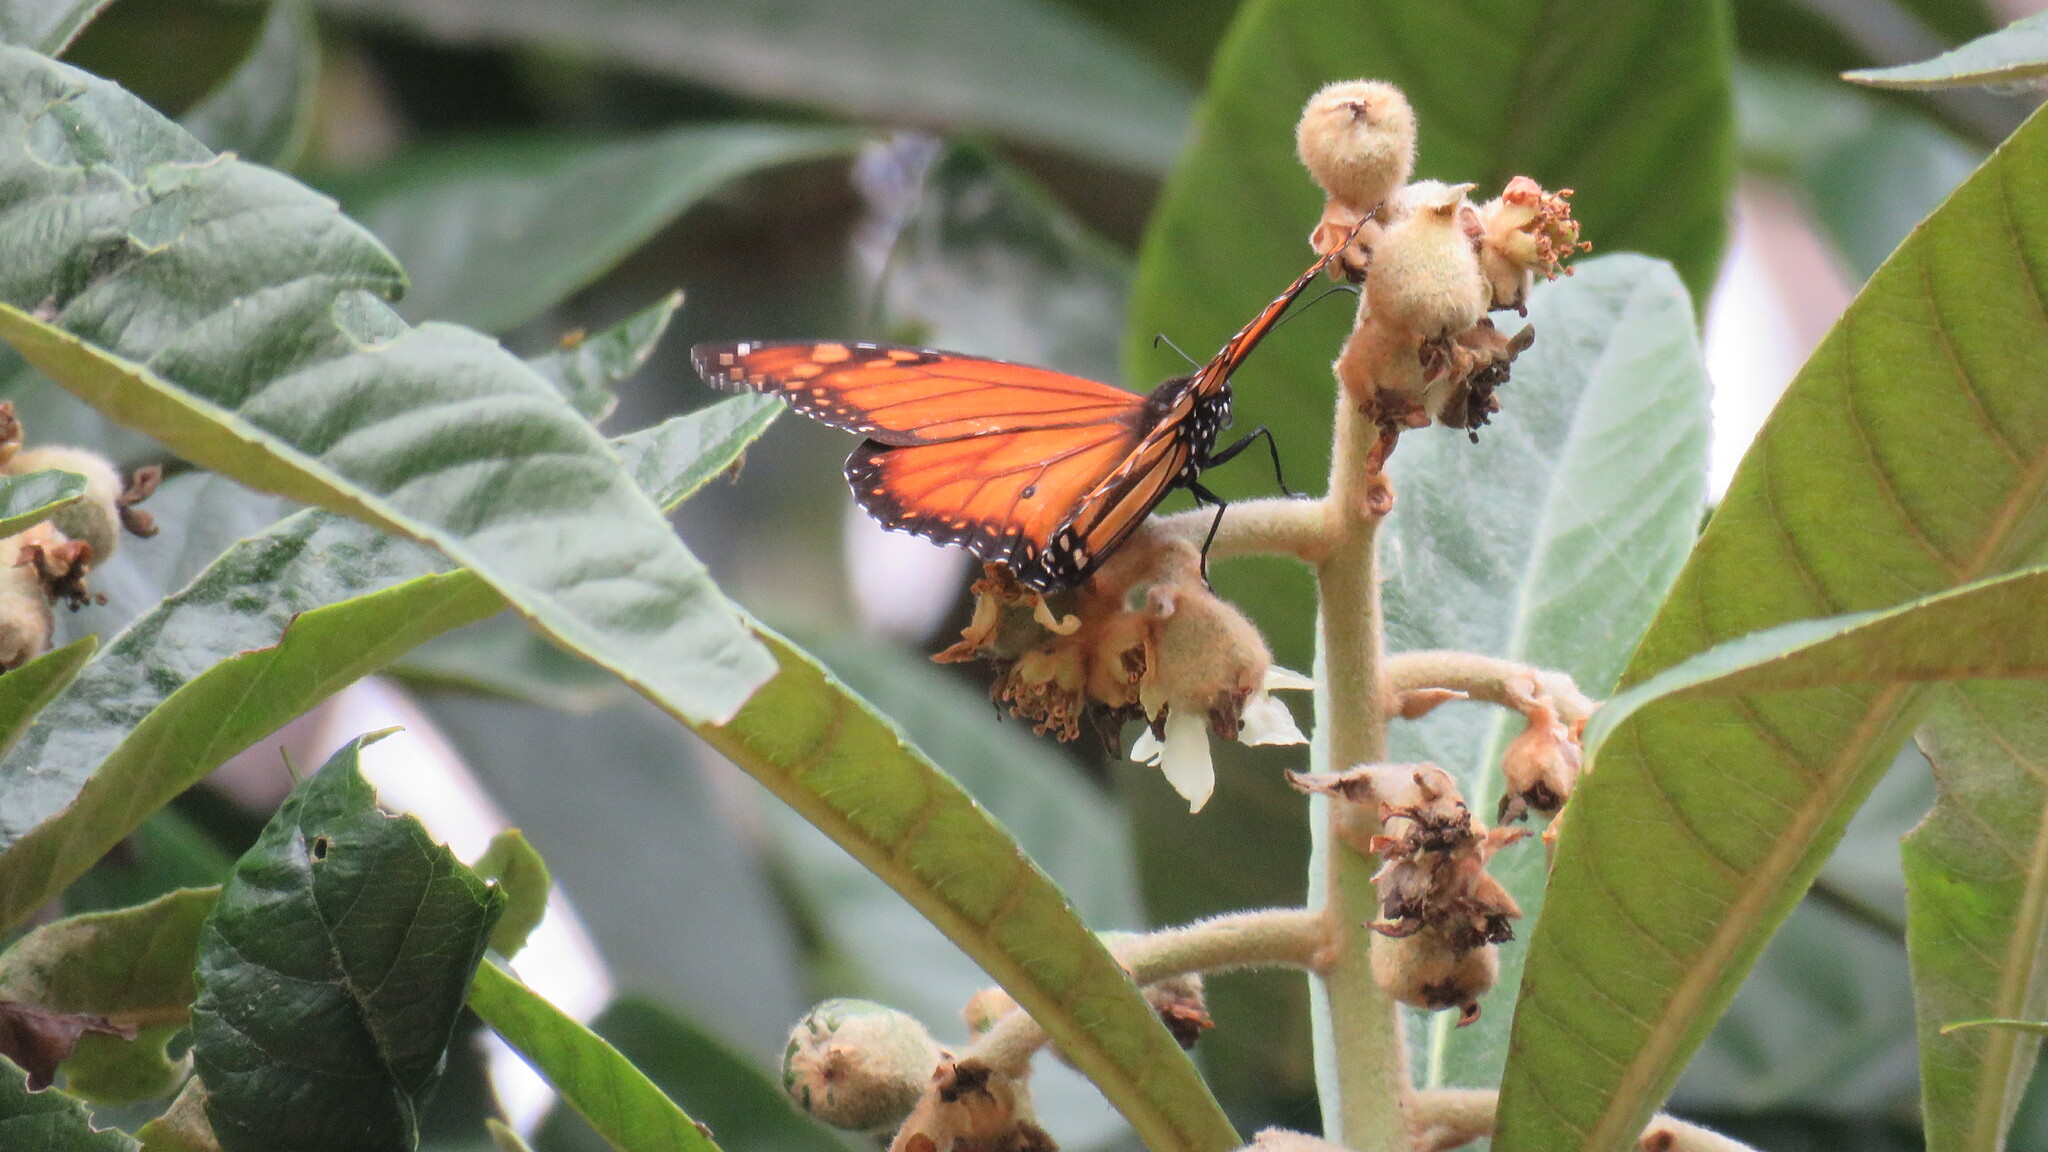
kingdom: Animalia
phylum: Arthropoda
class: Insecta
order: Lepidoptera
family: Nymphalidae
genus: Danaus
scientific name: Danaus erippus
